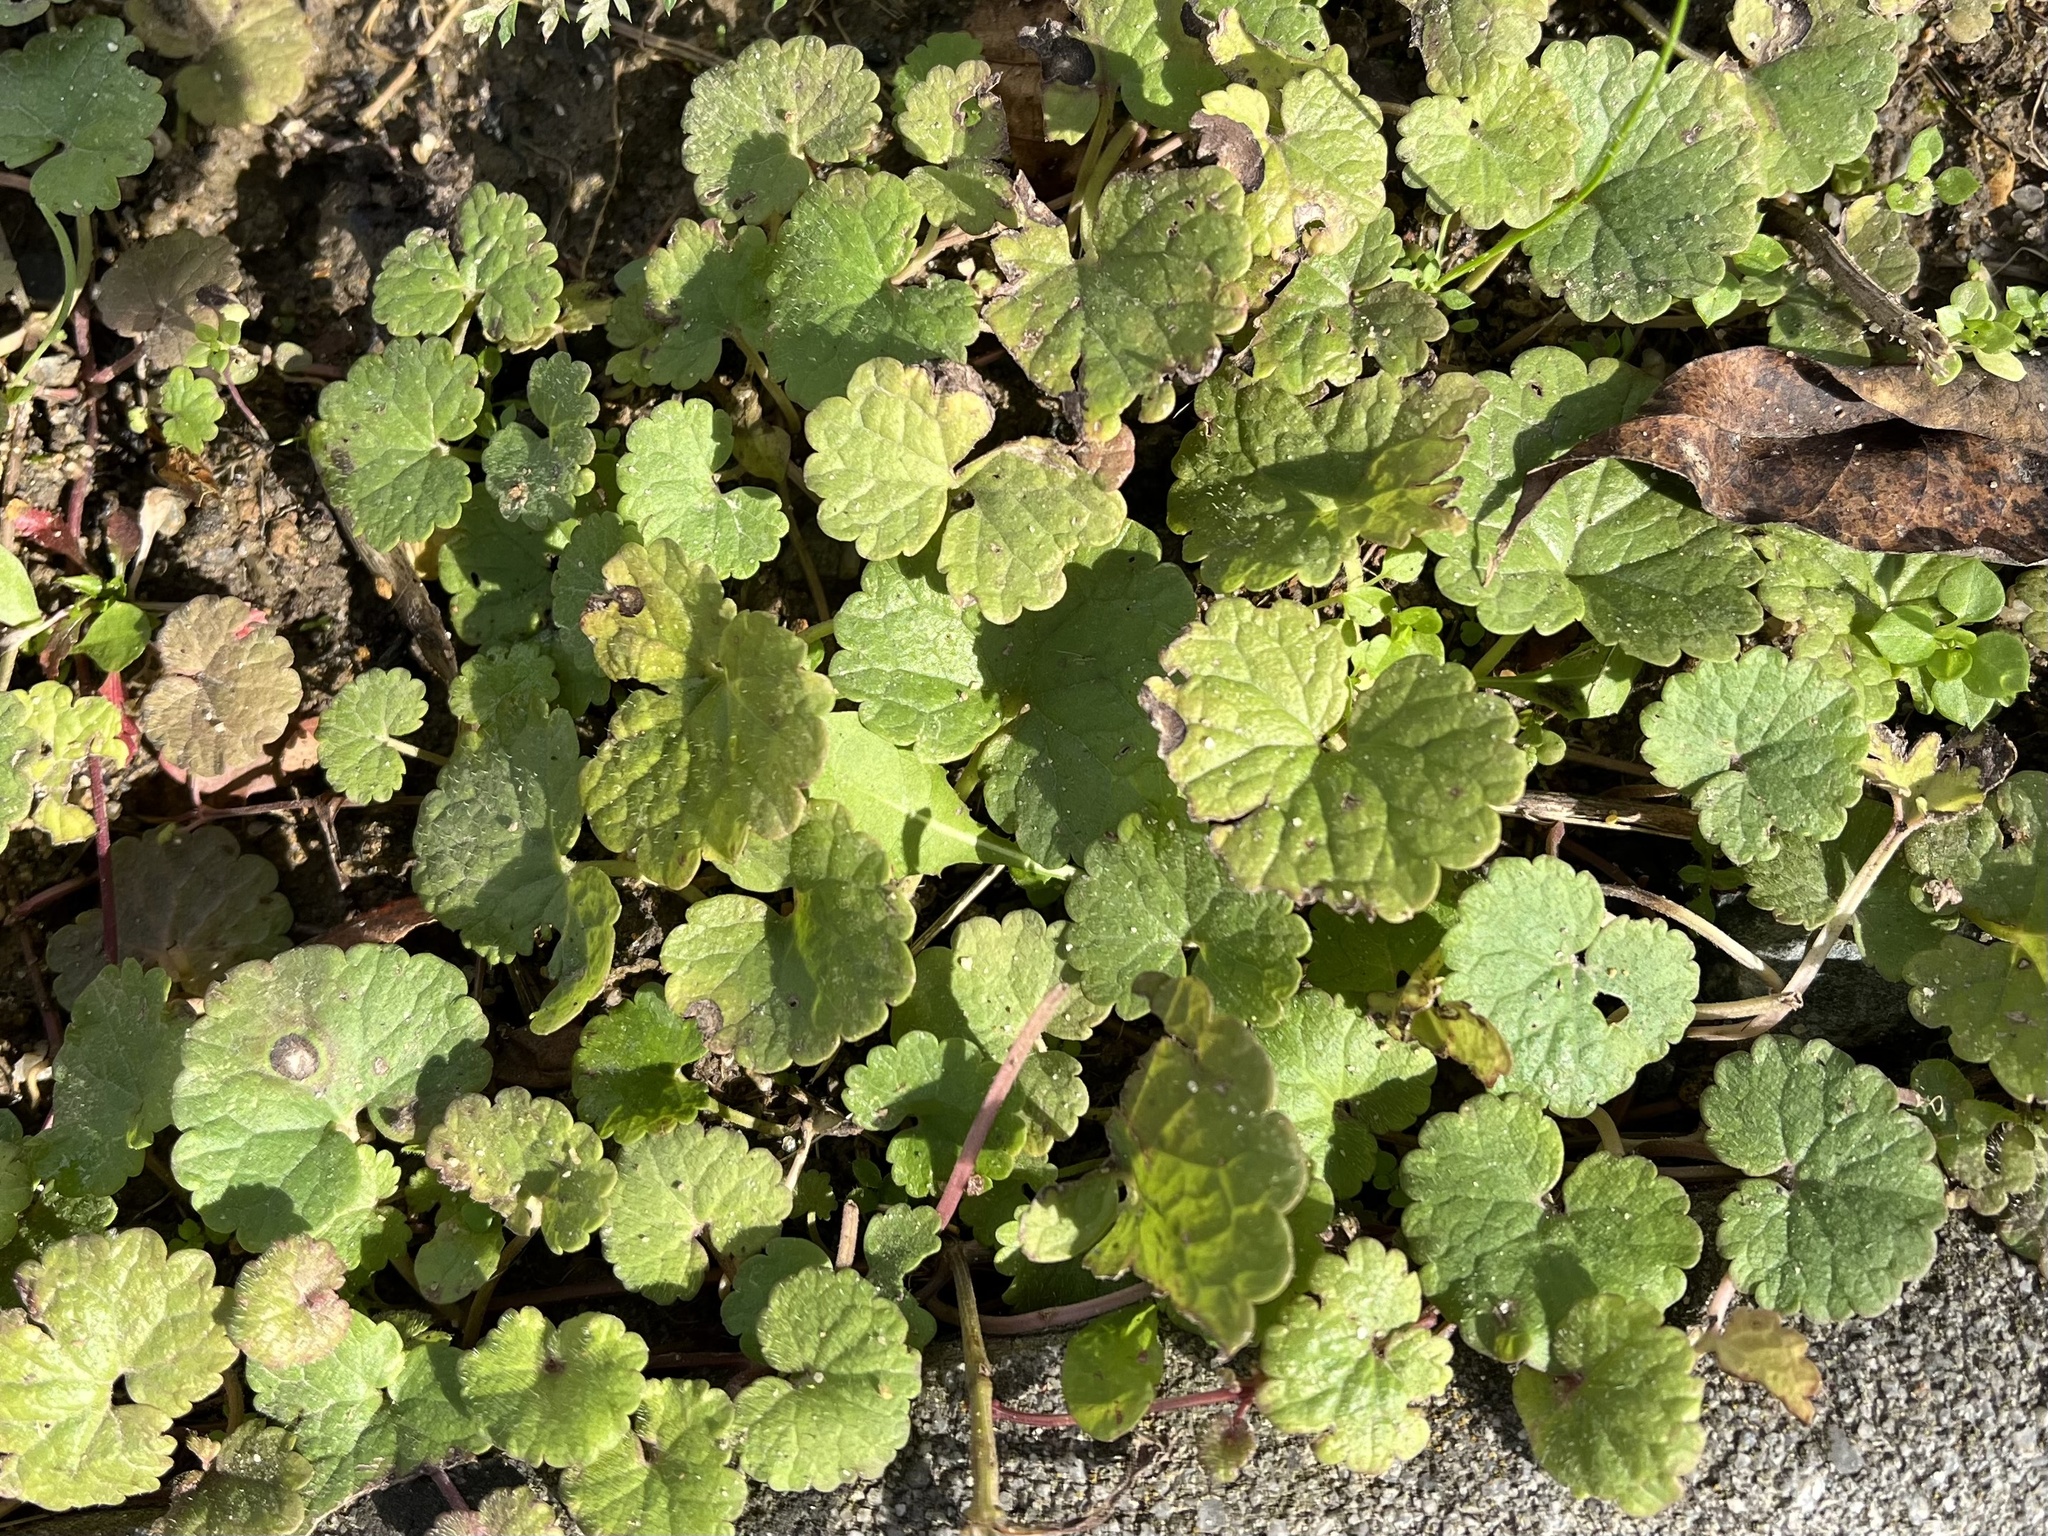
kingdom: Plantae
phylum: Tracheophyta
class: Magnoliopsida
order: Lamiales
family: Lamiaceae
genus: Glechoma
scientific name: Glechoma hederacea
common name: Ground ivy
